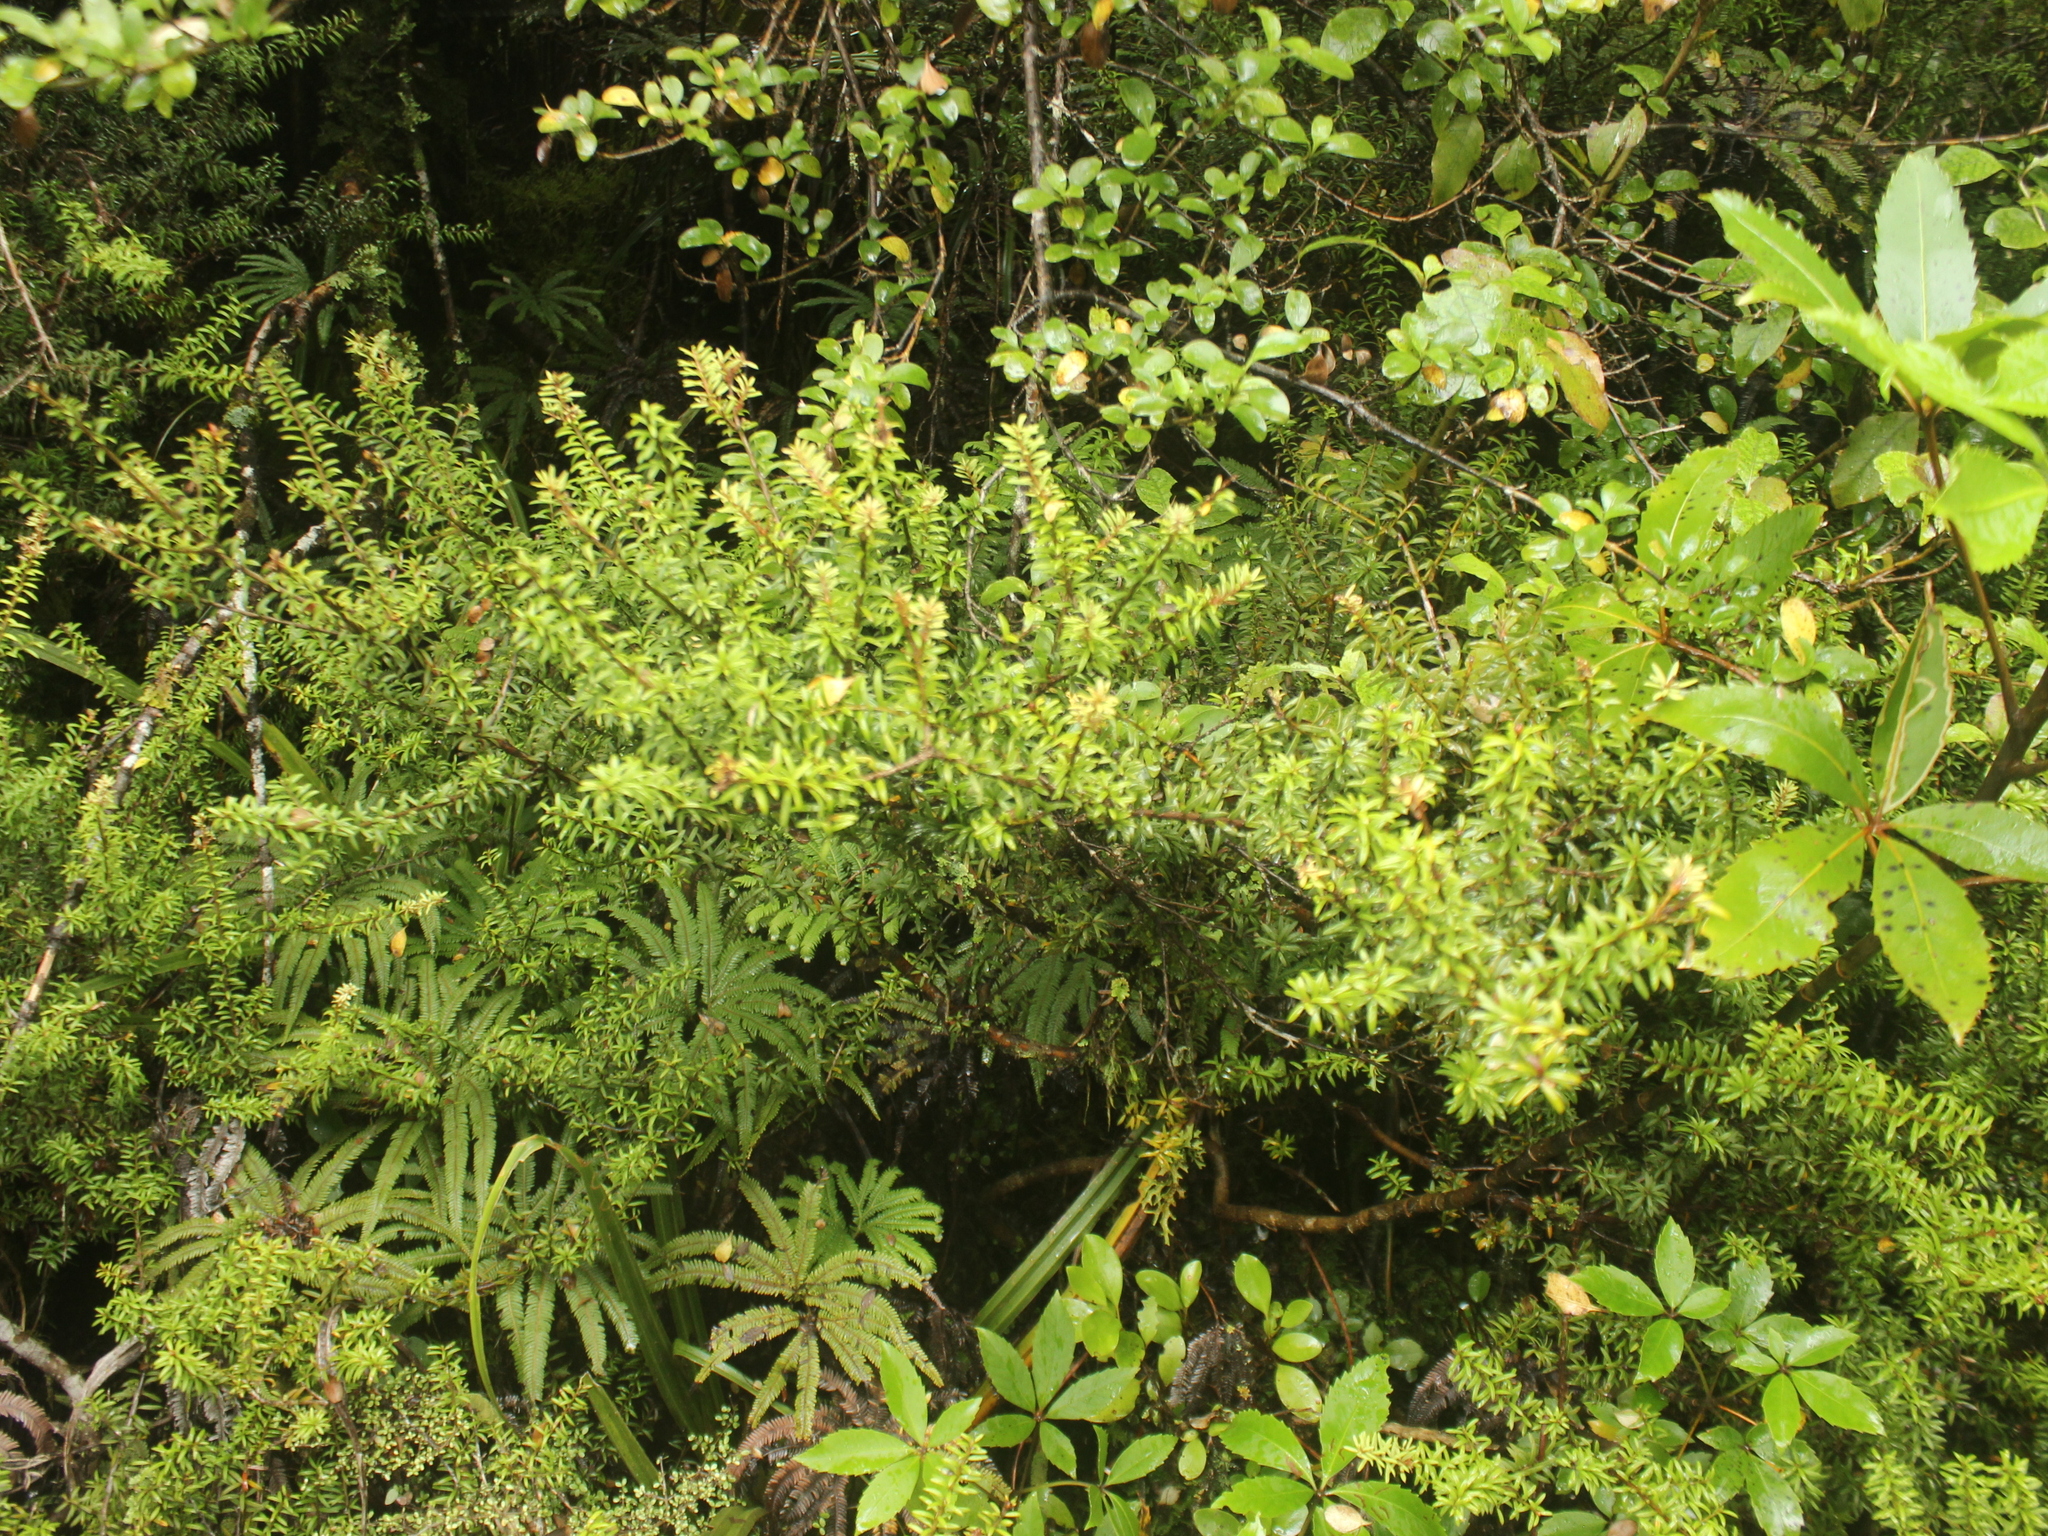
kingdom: Plantae
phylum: Tracheophyta
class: Pinopsida
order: Pinales
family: Podocarpaceae
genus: Podocarpus
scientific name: Podocarpus
